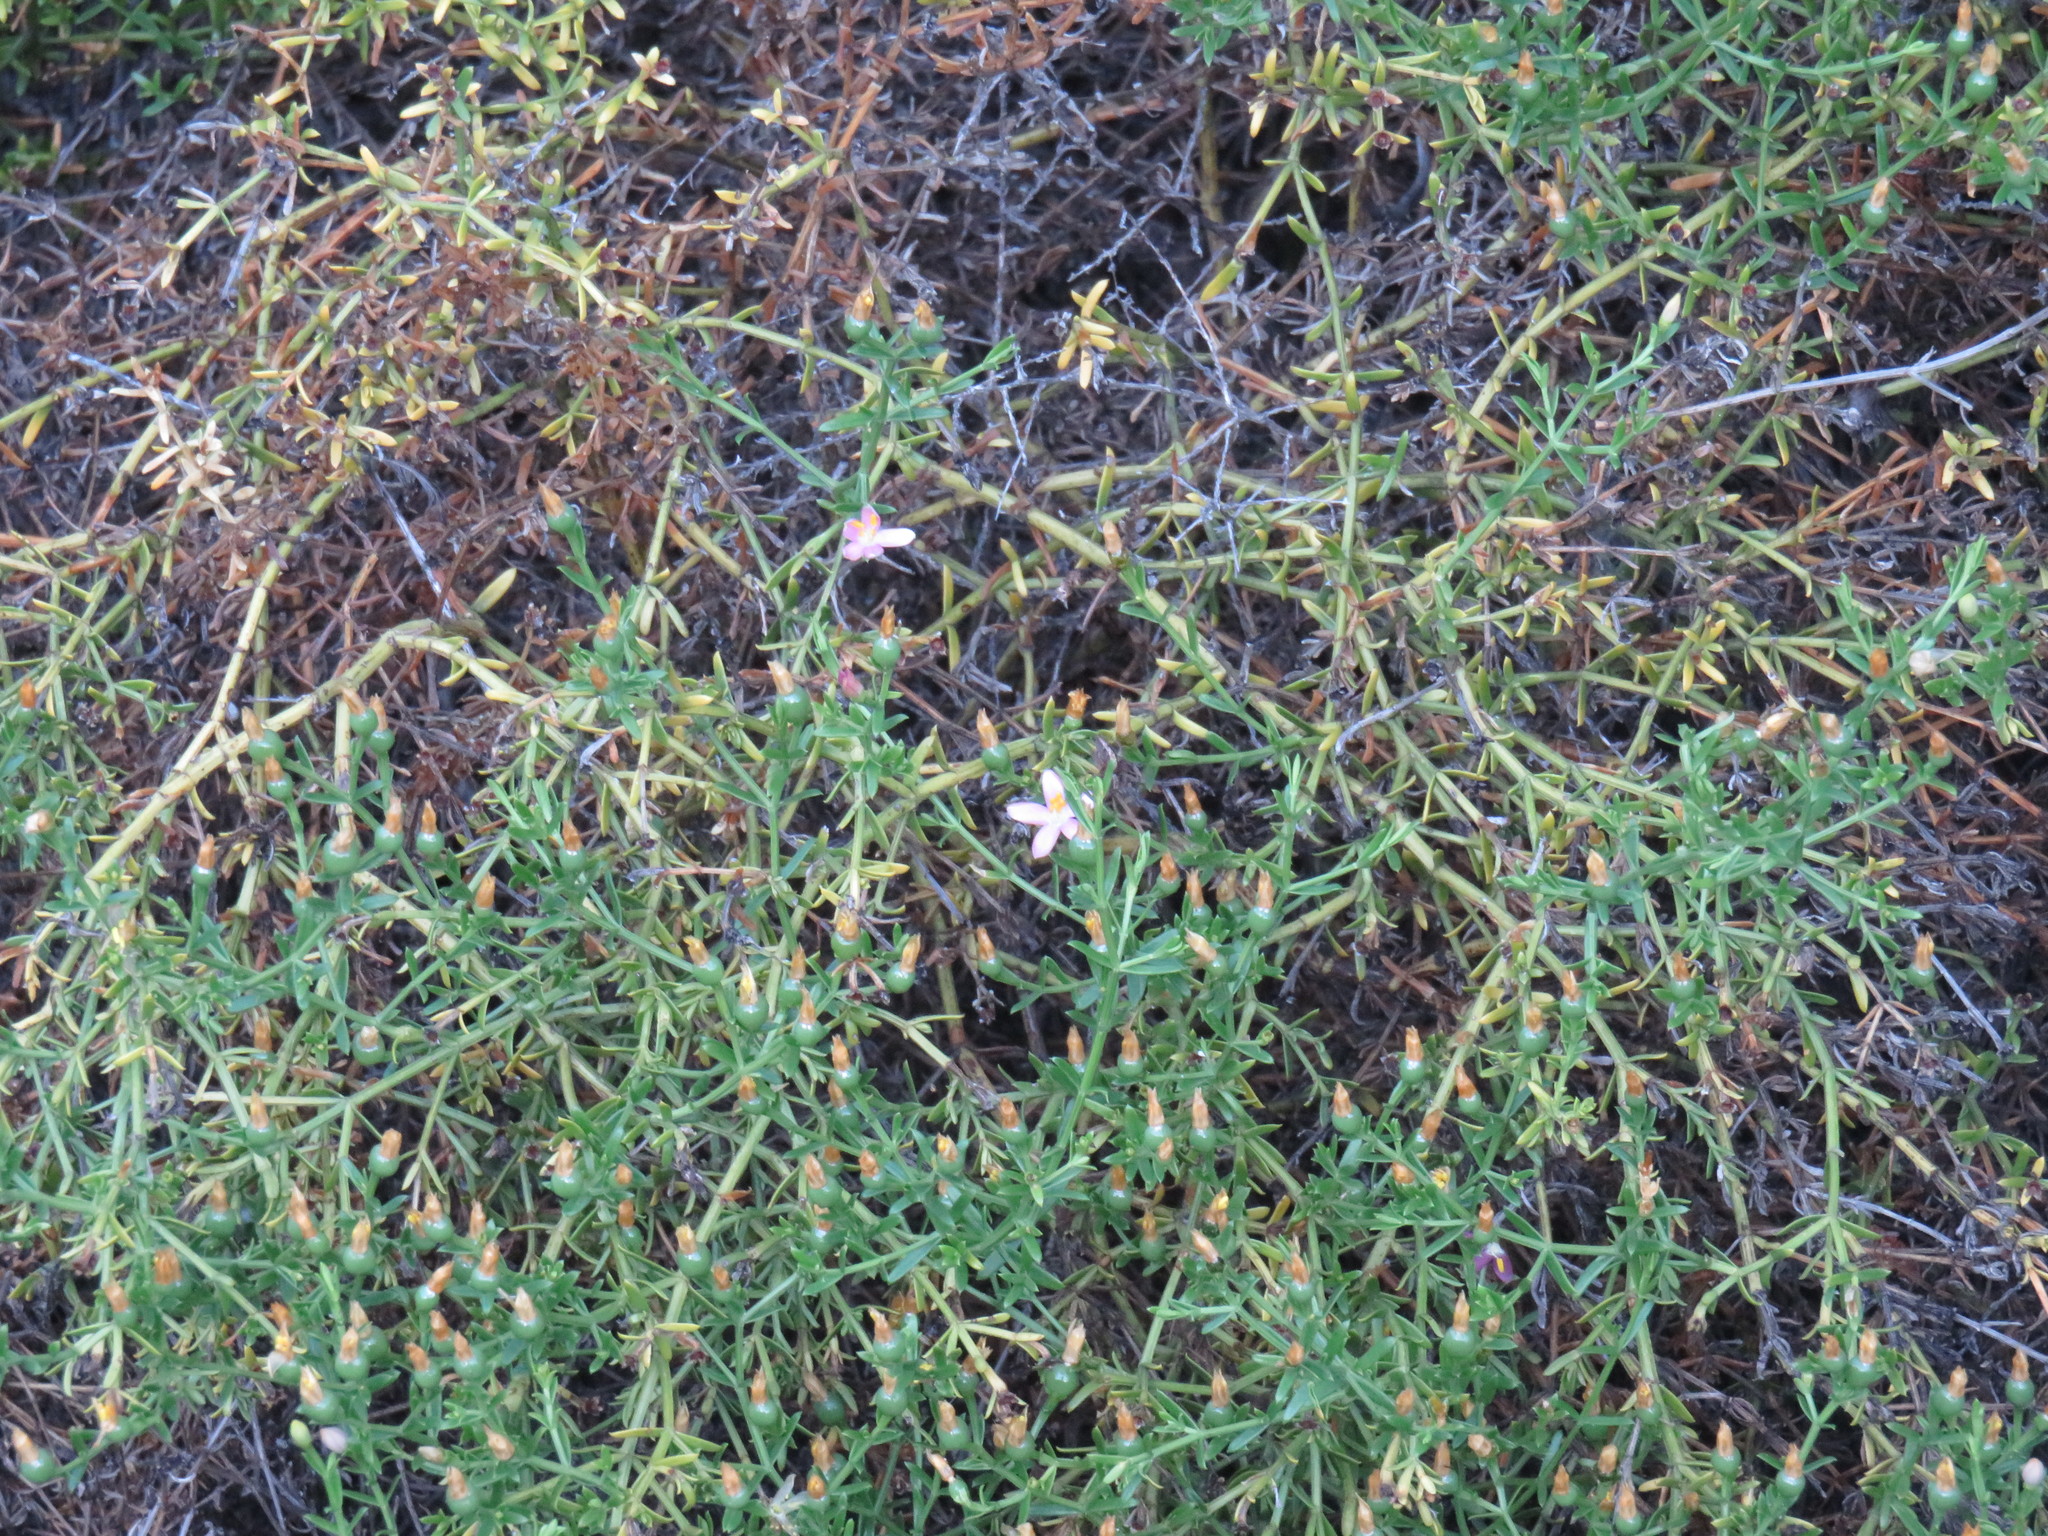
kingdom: Plantae
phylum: Tracheophyta
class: Magnoliopsida
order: Gentianales
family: Gentianaceae
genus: Chironia
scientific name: Chironia baccifera
